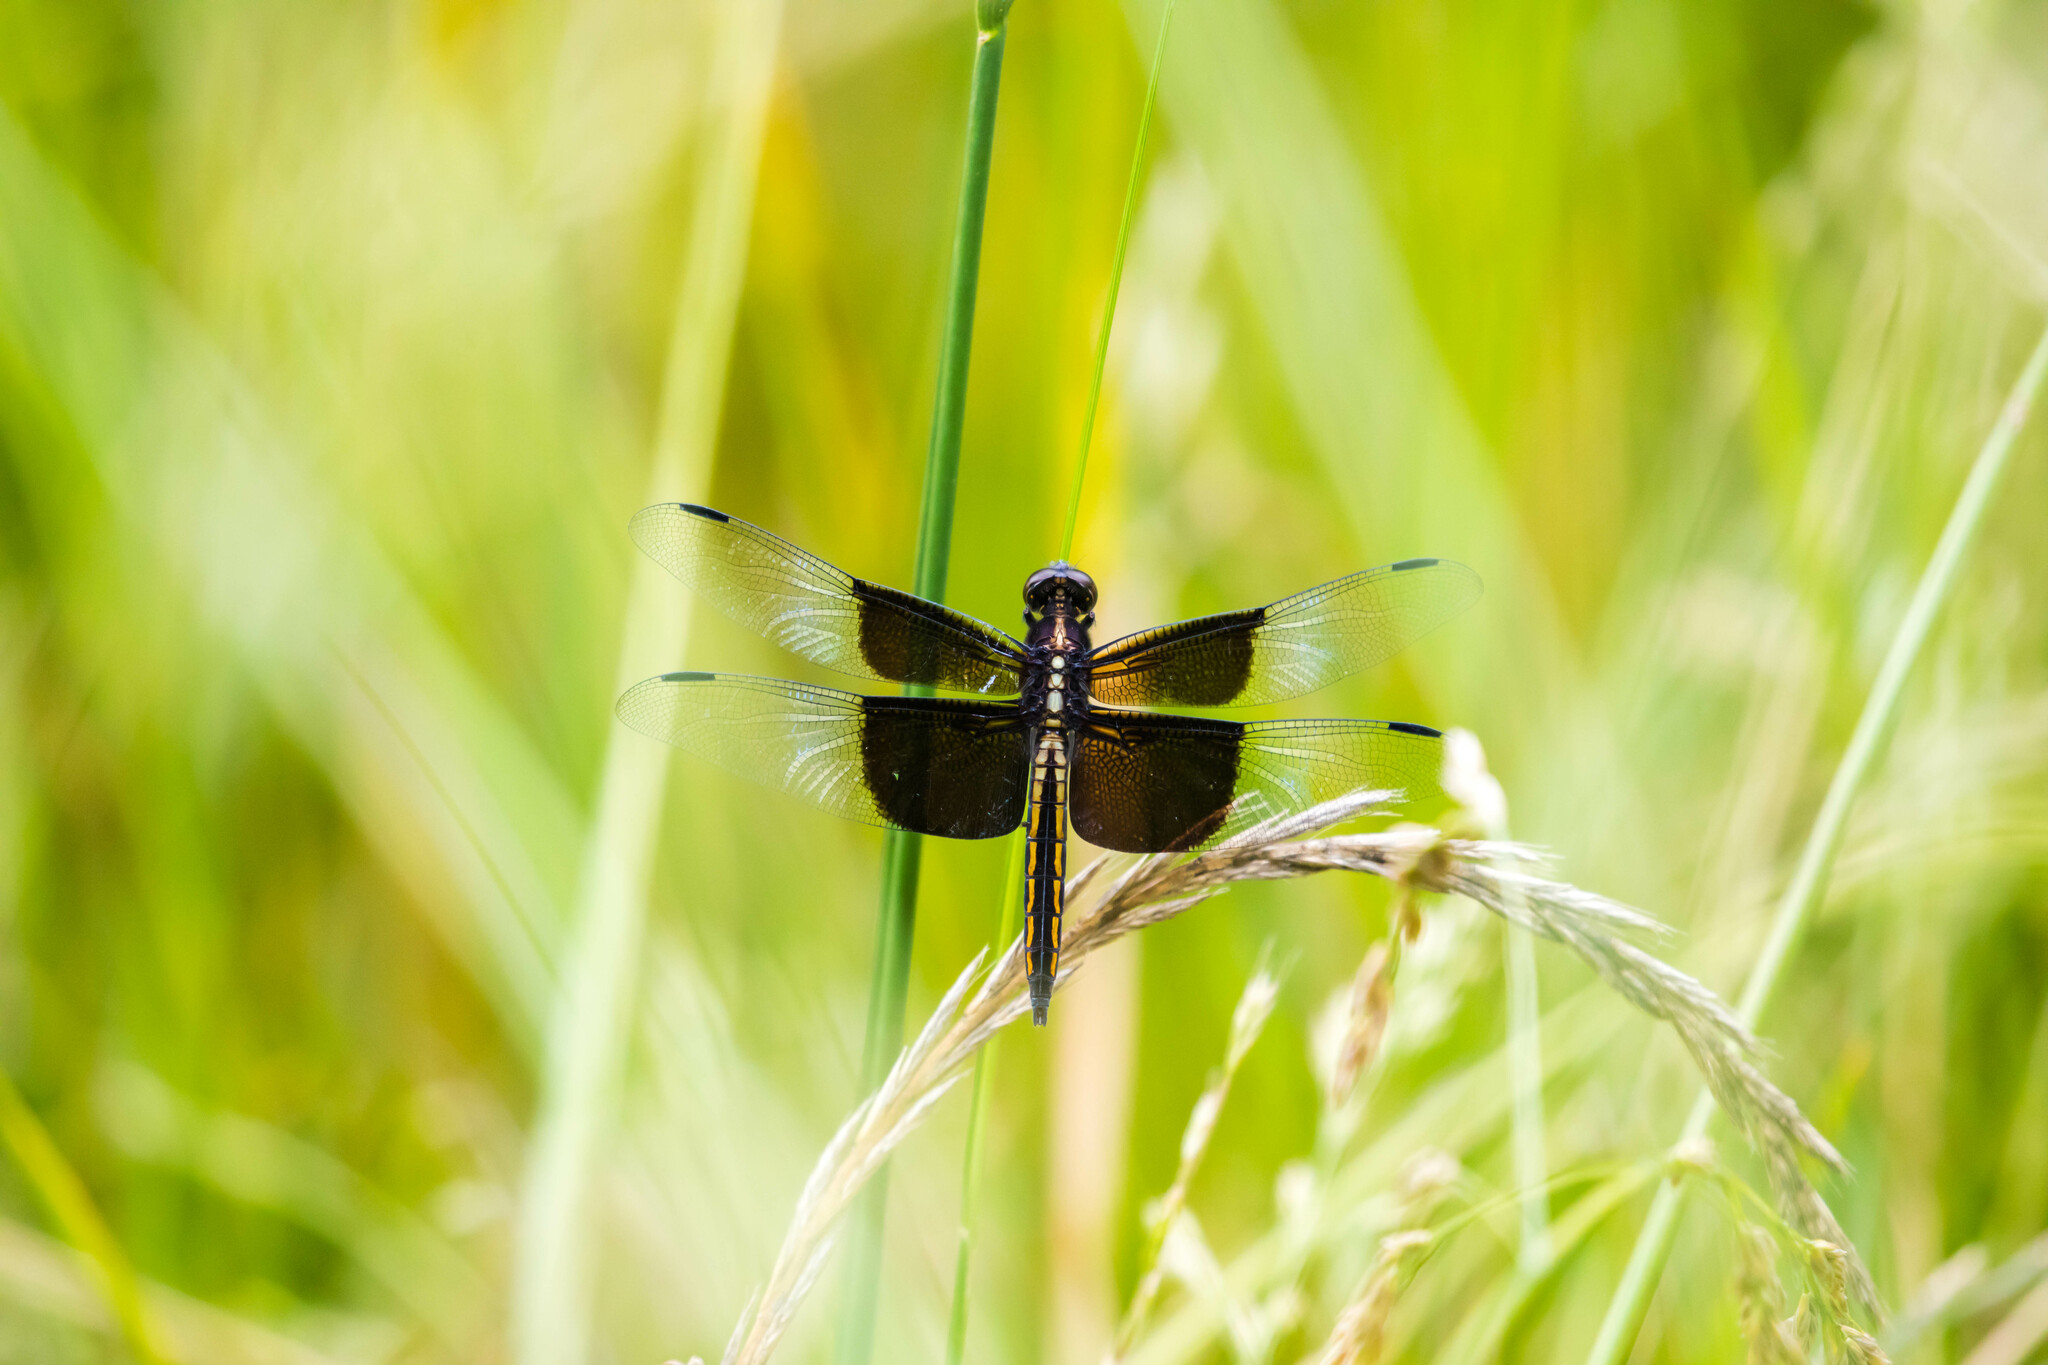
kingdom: Animalia
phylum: Arthropoda
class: Insecta
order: Odonata
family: Libellulidae
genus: Libellula
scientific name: Libellula luctuosa
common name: Widow skimmer
